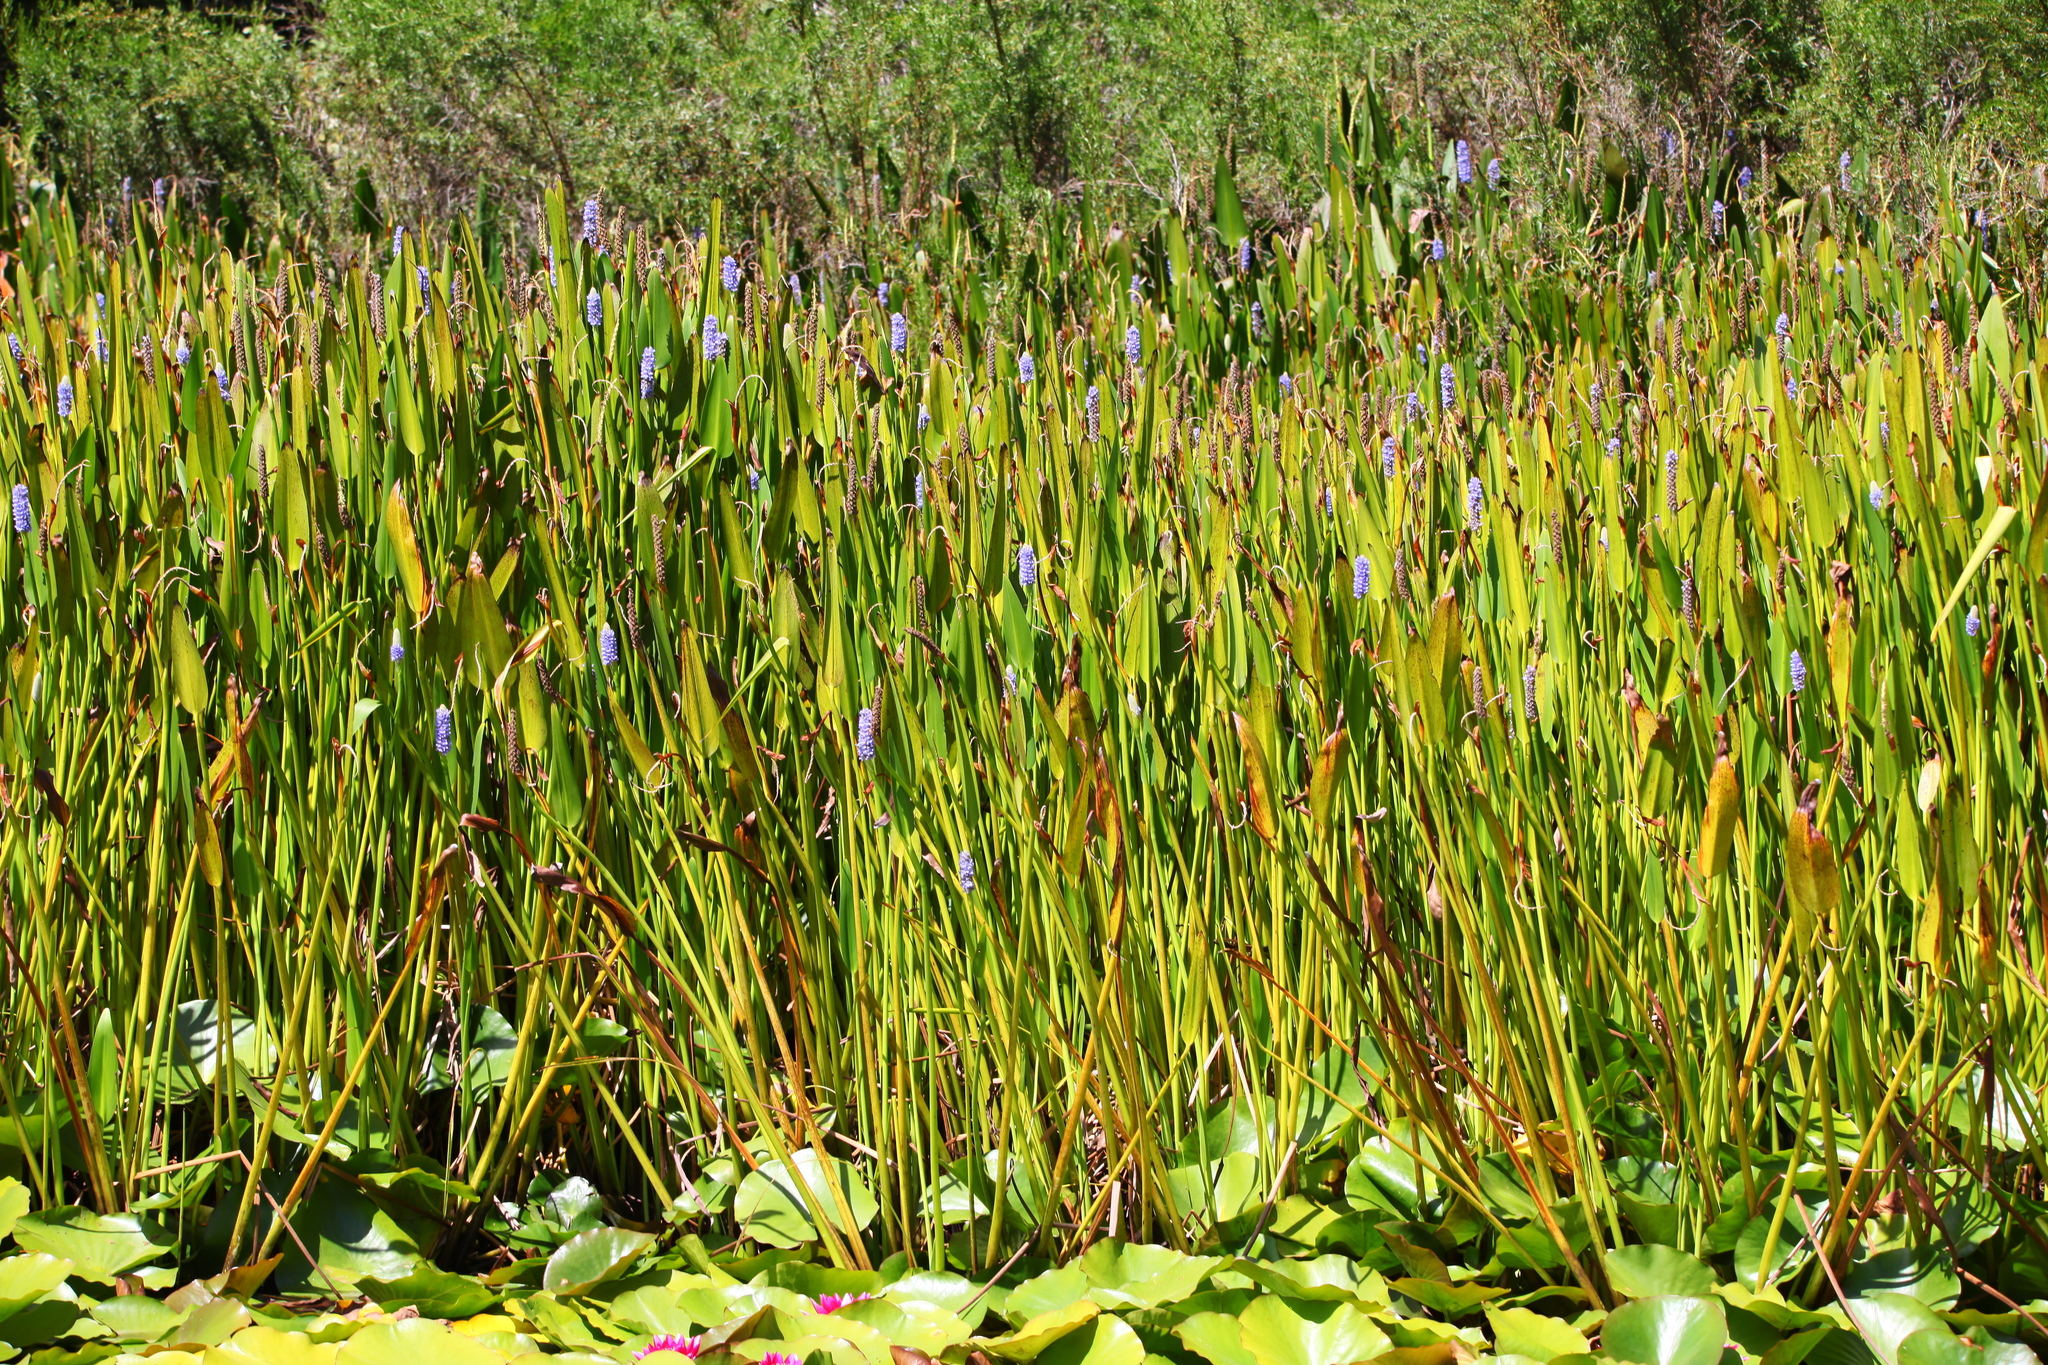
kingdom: Plantae
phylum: Tracheophyta
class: Liliopsida
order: Commelinales
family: Pontederiaceae
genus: Pontederia
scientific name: Pontederia cordata
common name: Pickerelweed
